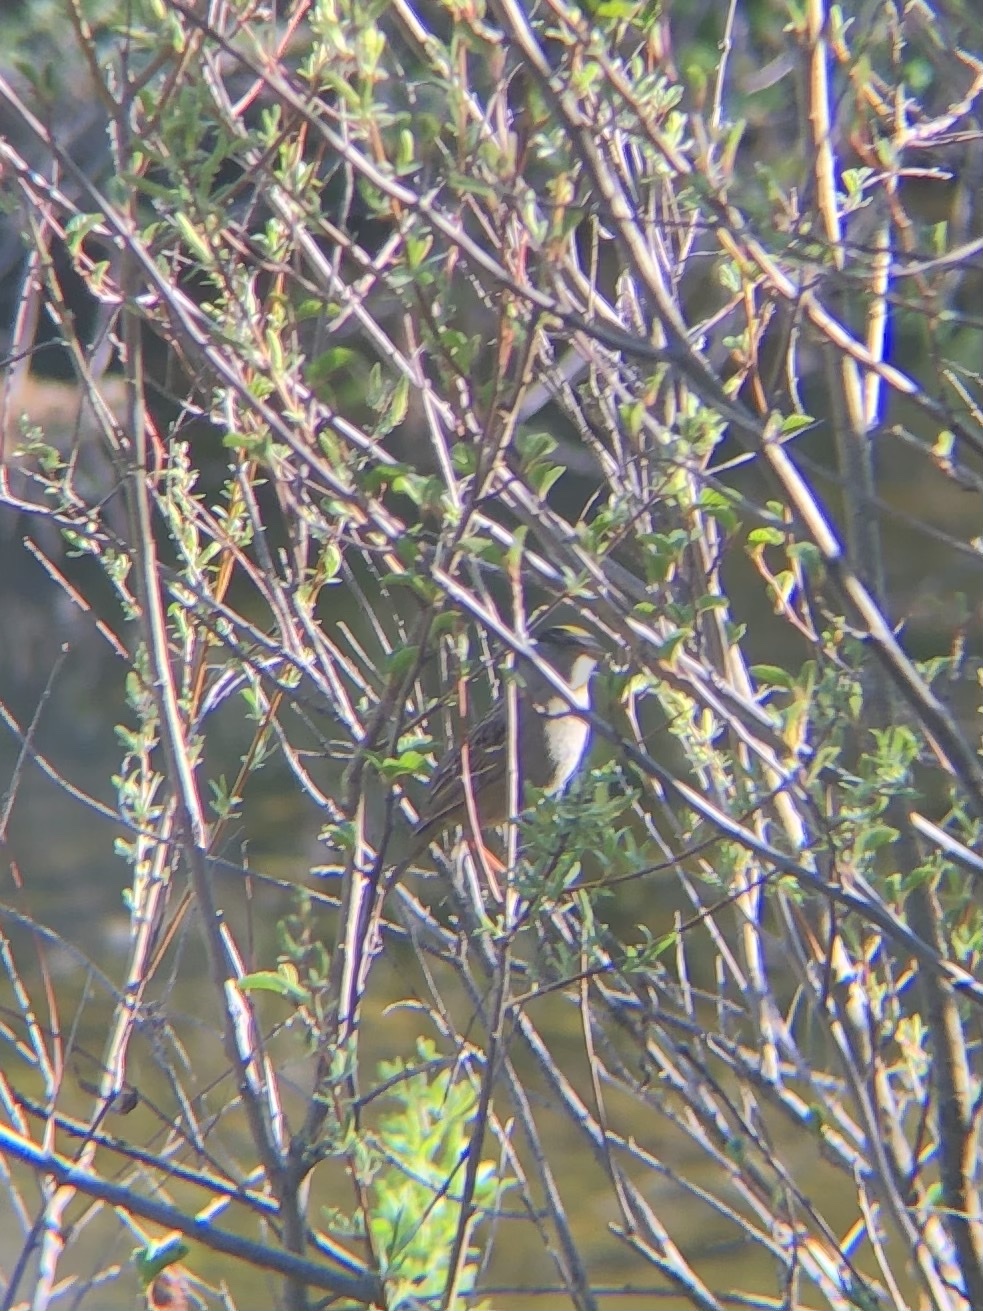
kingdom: Animalia
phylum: Chordata
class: Aves
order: Passeriformes
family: Passerellidae
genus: Zonotrichia
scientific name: Zonotrichia atricapilla
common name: Golden-crowned sparrow
